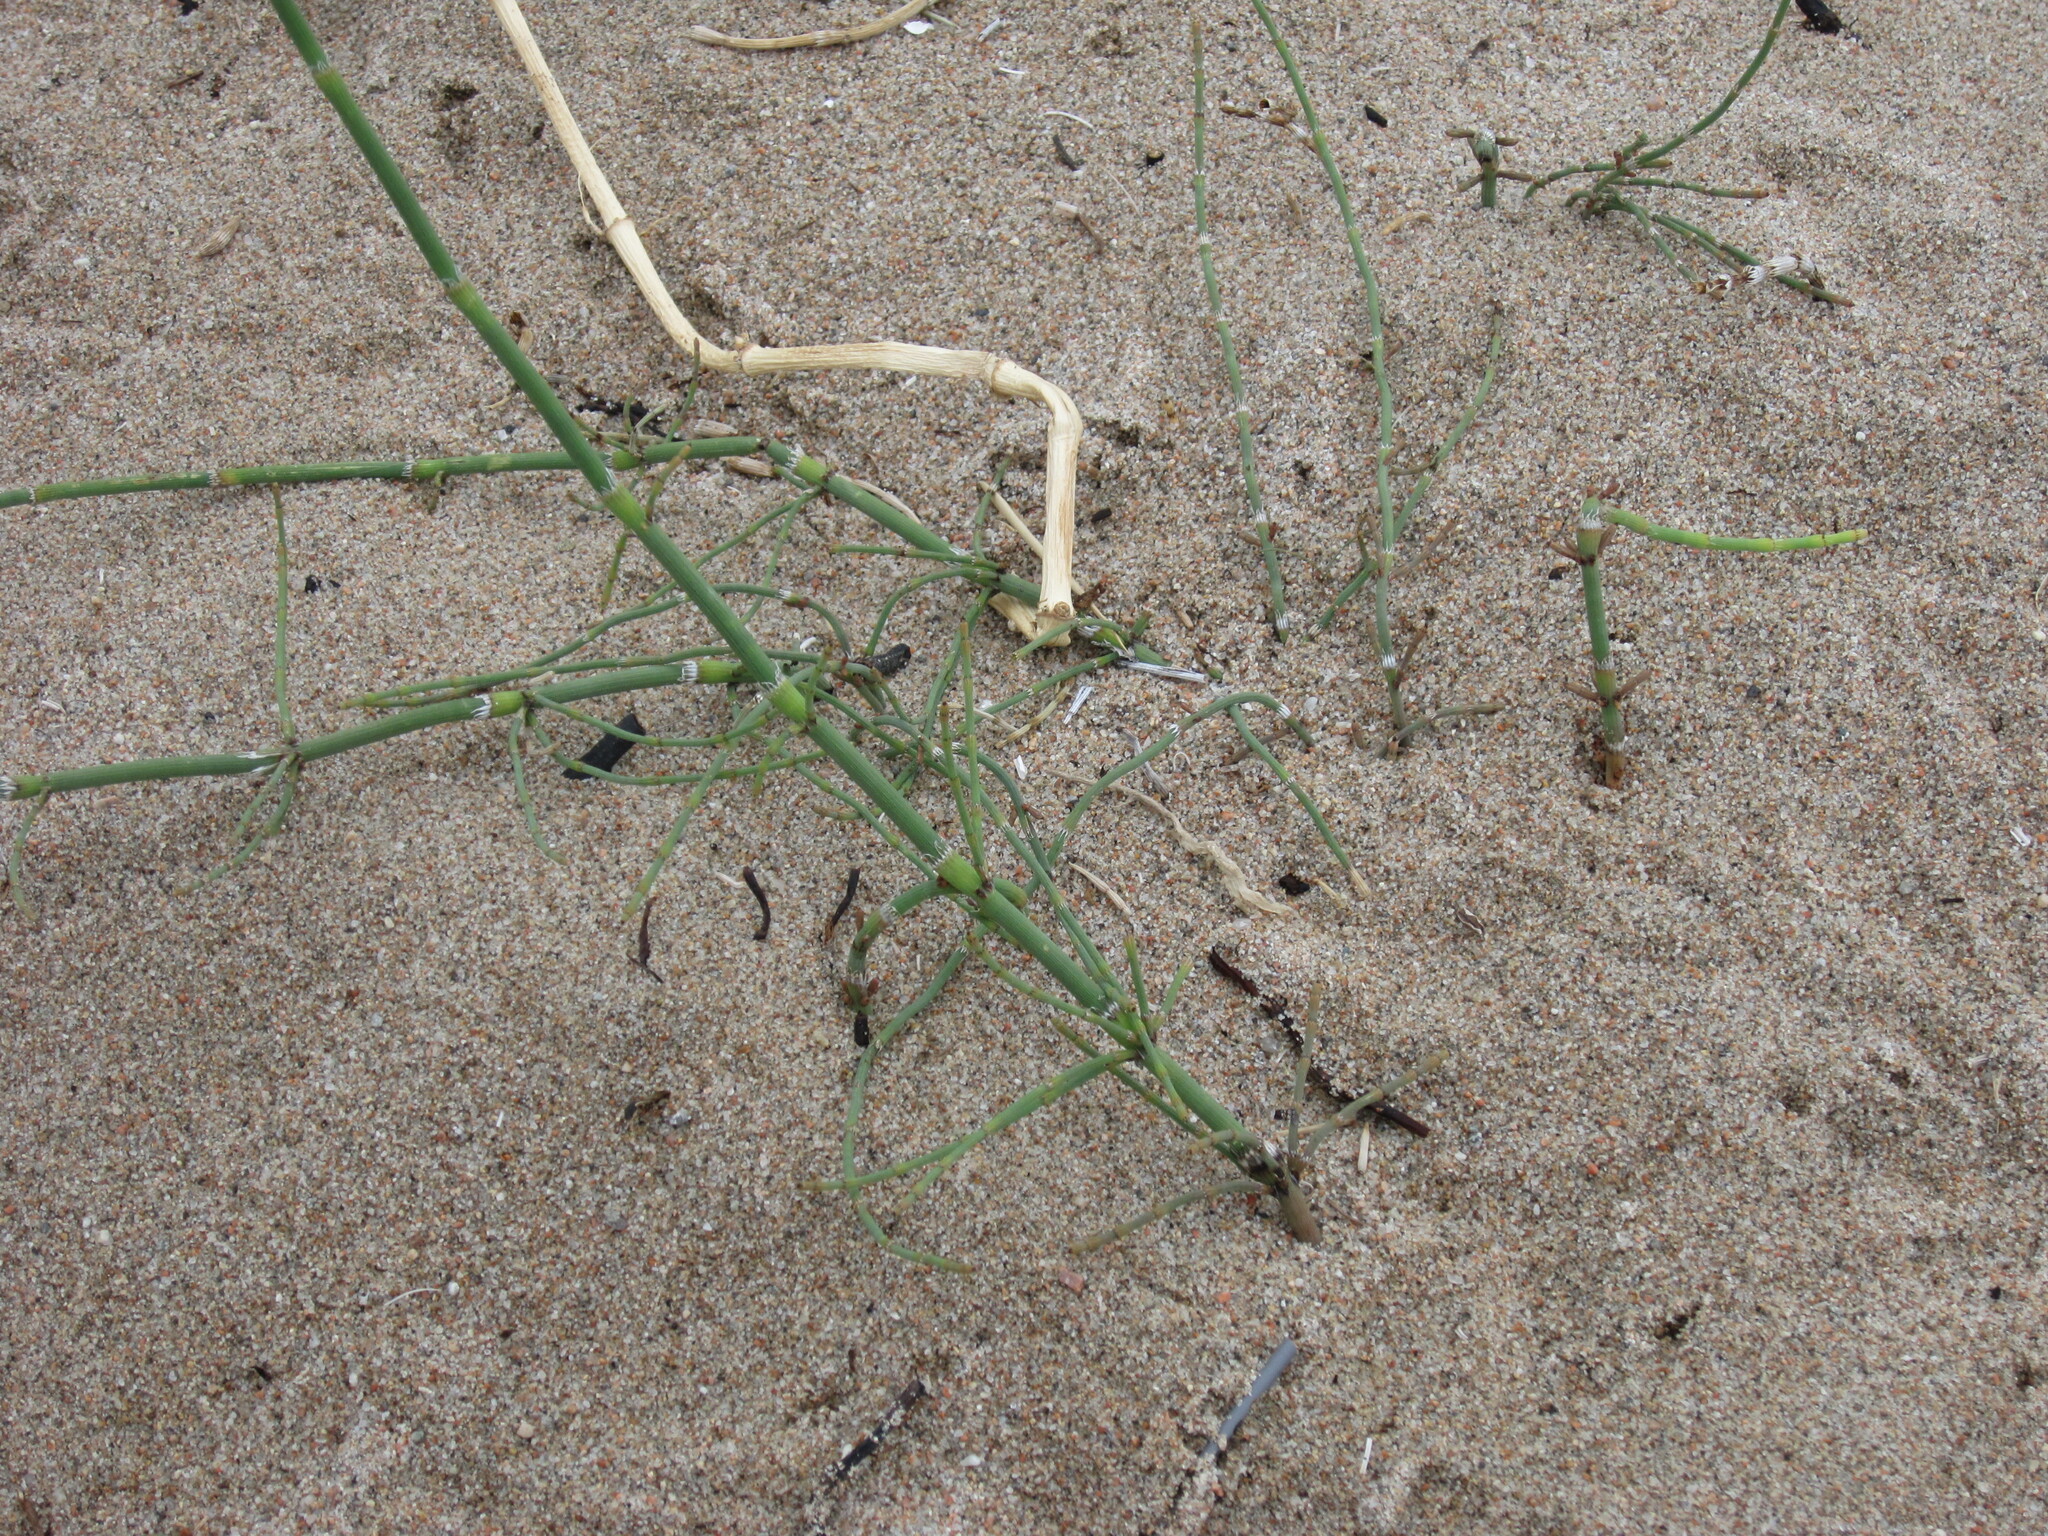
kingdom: Plantae
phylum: Tracheophyta
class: Polypodiopsida
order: Equisetales
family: Equisetaceae
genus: Equisetum
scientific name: Equisetum ramosissimum
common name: Branched horsetail
